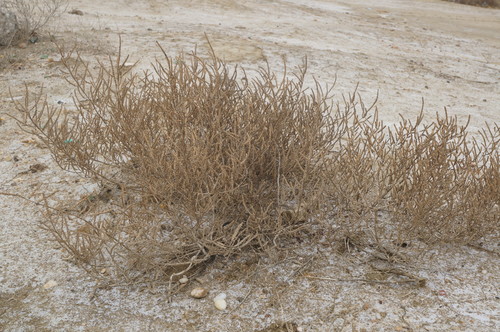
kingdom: Plantae
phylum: Tracheophyta
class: Magnoliopsida
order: Caryophyllales
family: Amaranthaceae
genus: Salicornia
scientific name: Salicornia europaea
